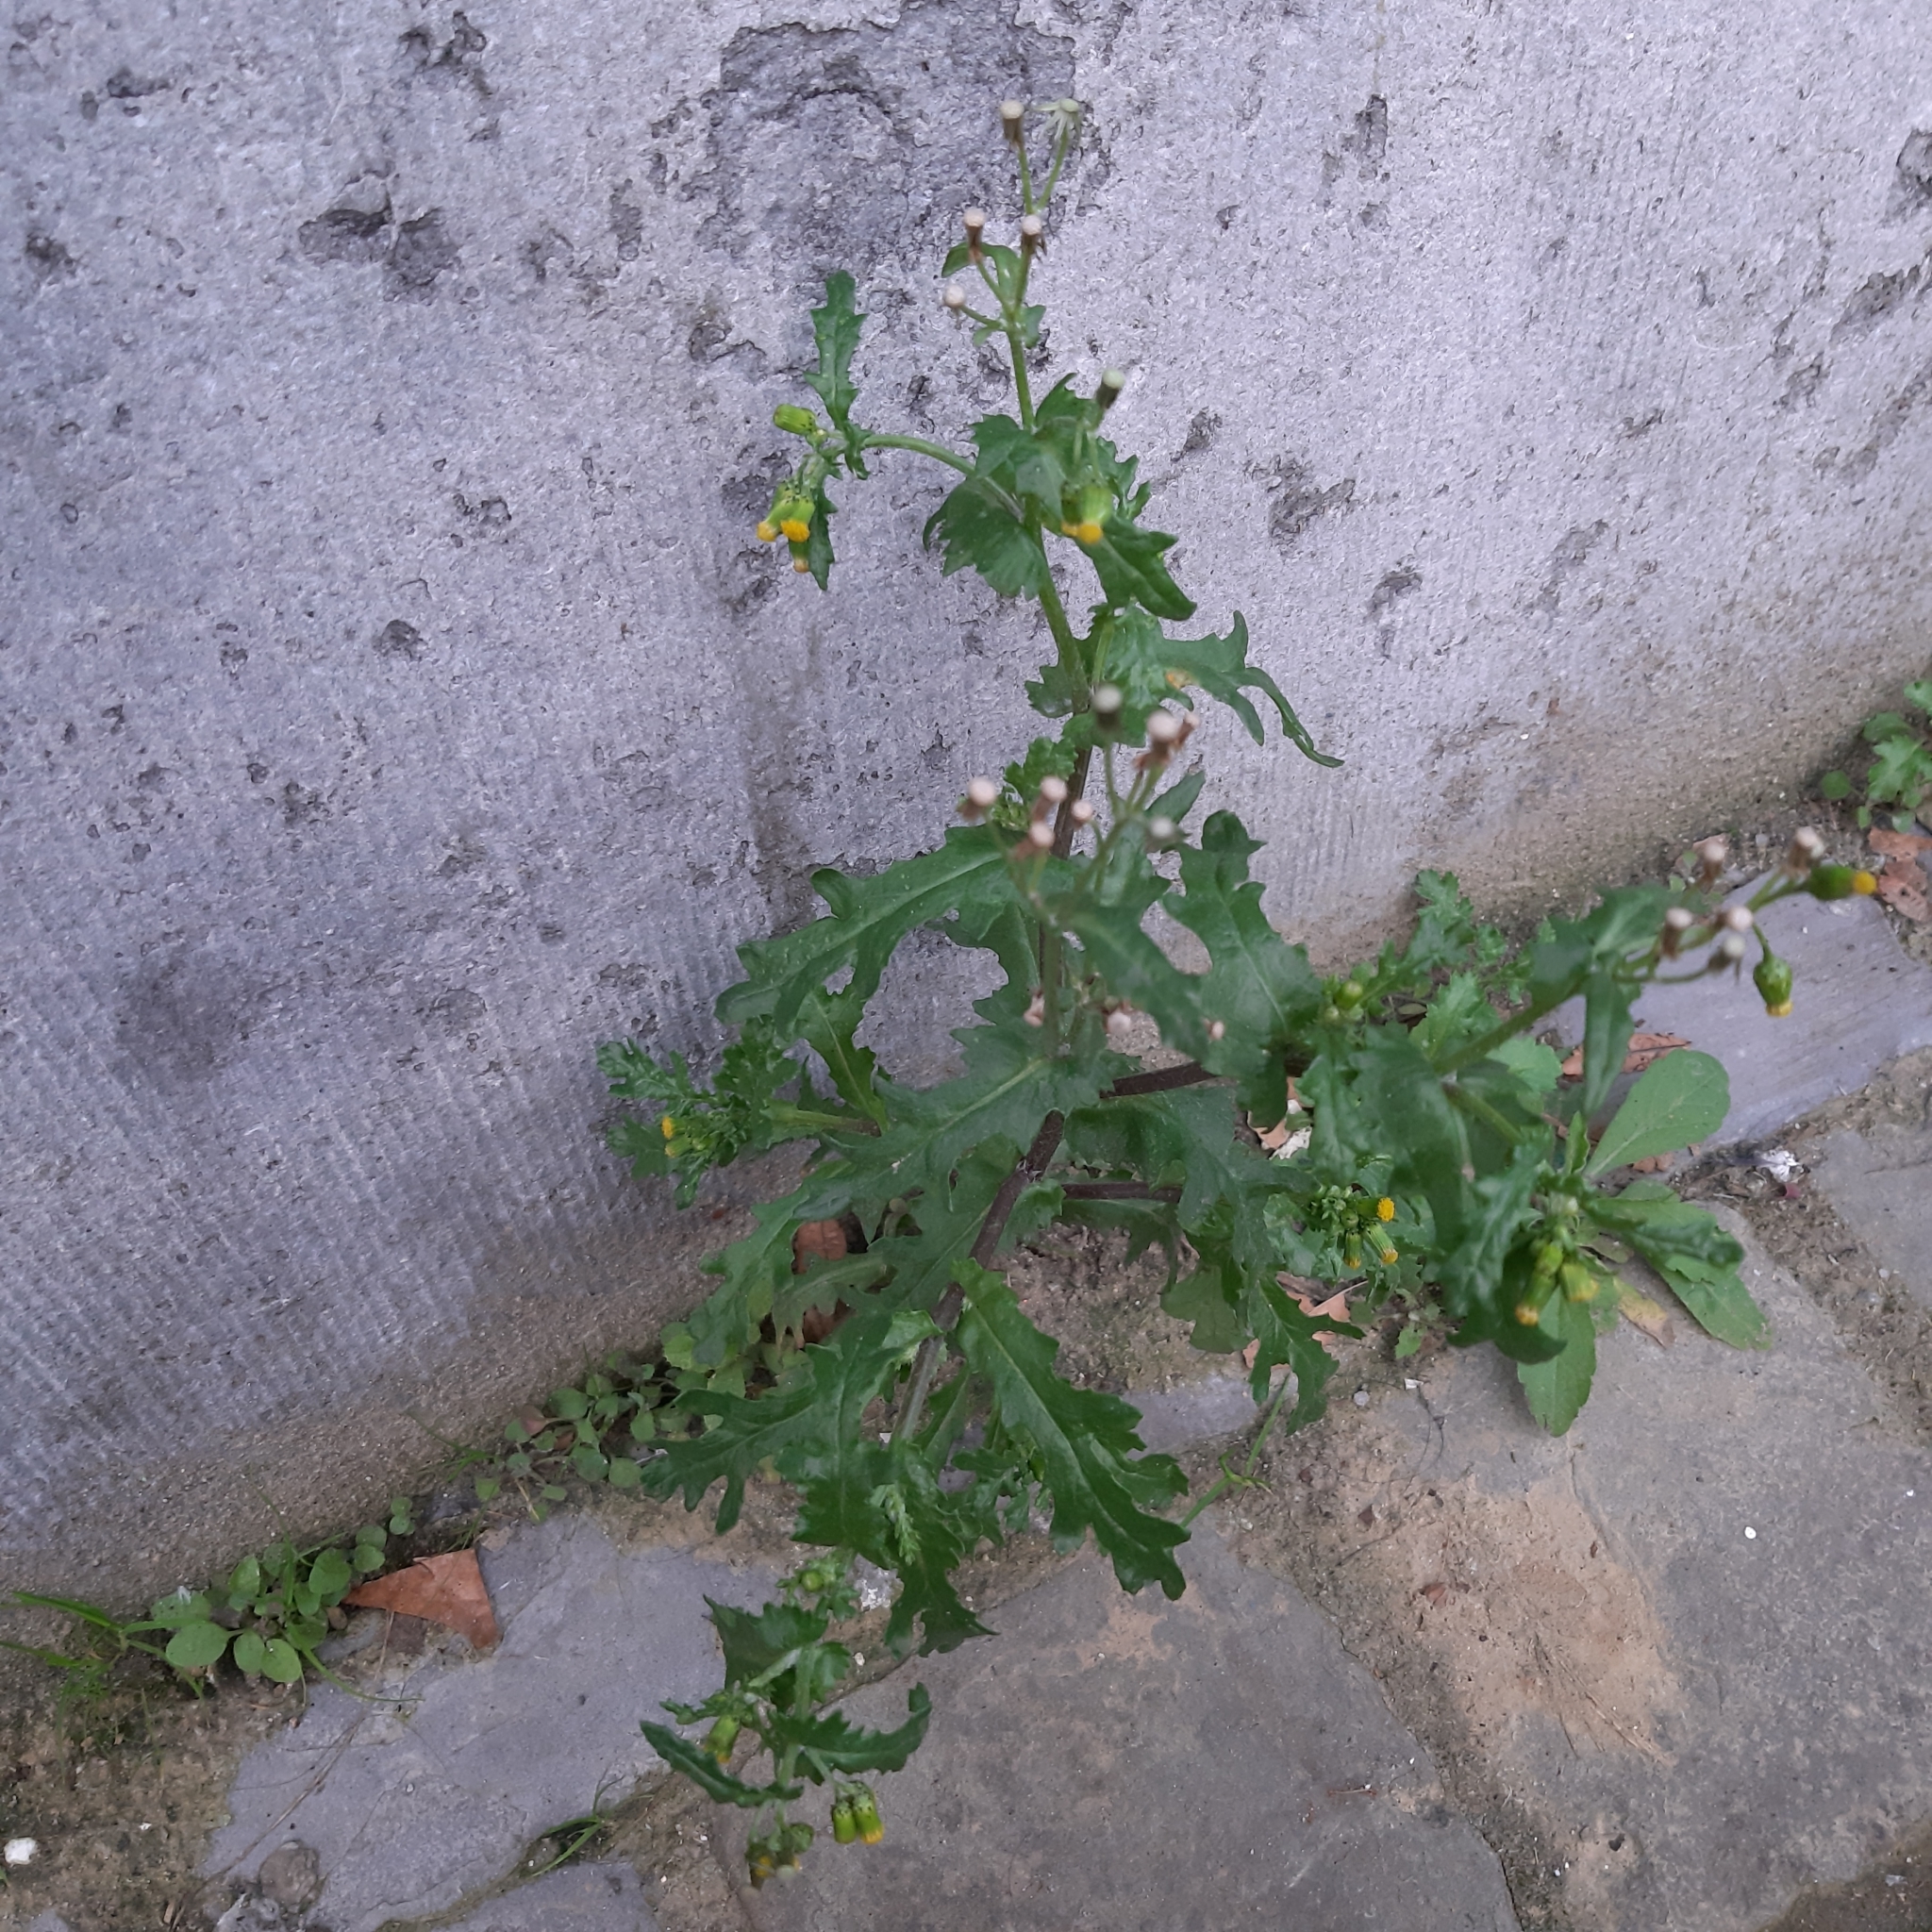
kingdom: Plantae
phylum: Tracheophyta
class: Magnoliopsida
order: Asterales
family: Asteraceae
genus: Senecio
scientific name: Senecio vulgaris
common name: Old-man-in-the-spring
